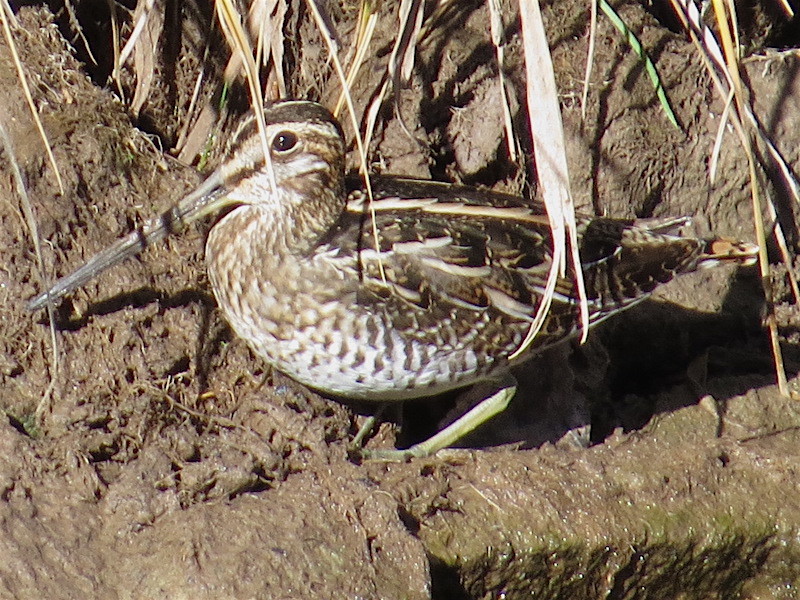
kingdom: Animalia
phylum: Chordata
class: Aves
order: Charadriiformes
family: Scolopacidae
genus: Gallinago
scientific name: Gallinago delicata
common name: Wilson's snipe
